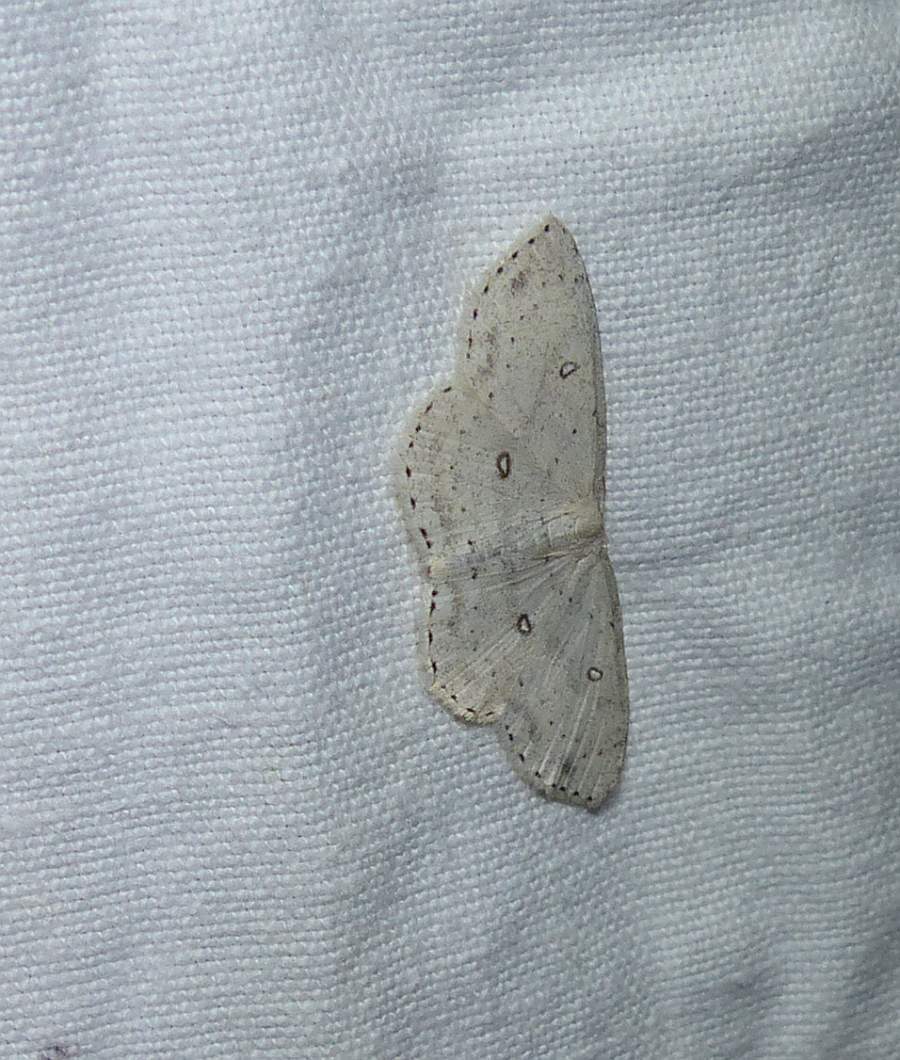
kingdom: Animalia
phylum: Arthropoda
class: Insecta
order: Lepidoptera
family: Geometridae
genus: Cyclophora
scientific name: Cyclophora pendulinaria
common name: Sweet fern geometer
